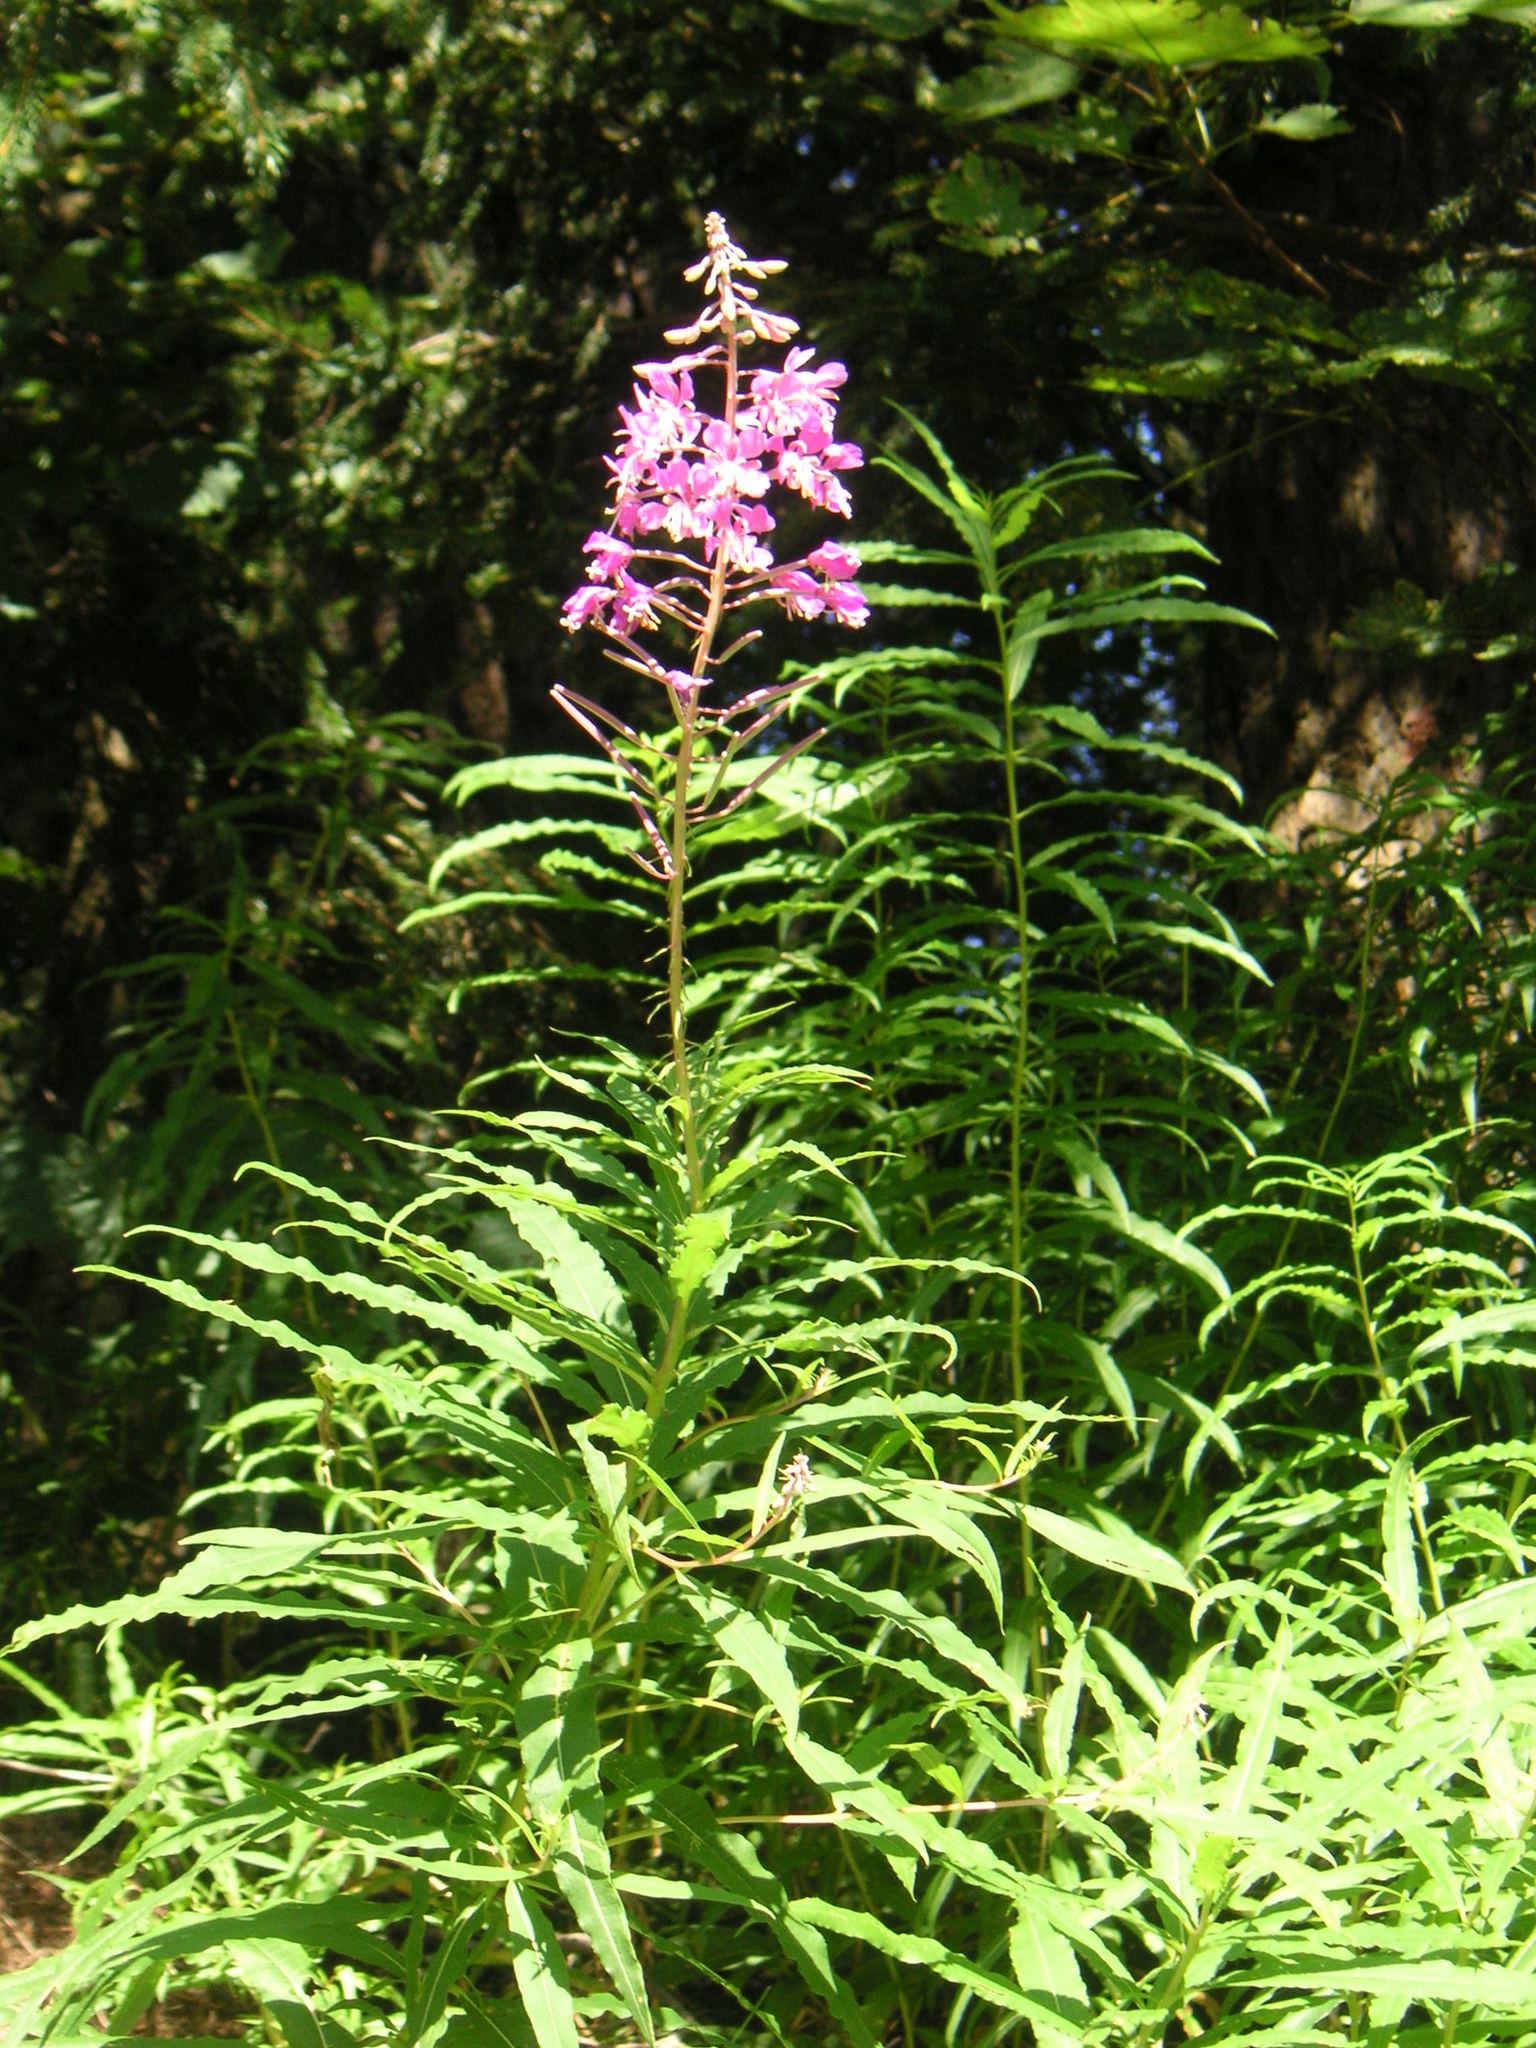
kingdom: Plantae
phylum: Tracheophyta
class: Magnoliopsida
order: Myrtales
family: Onagraceae
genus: Chamaenerion
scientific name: Chamaenerion angustifolium
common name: Fireweed
